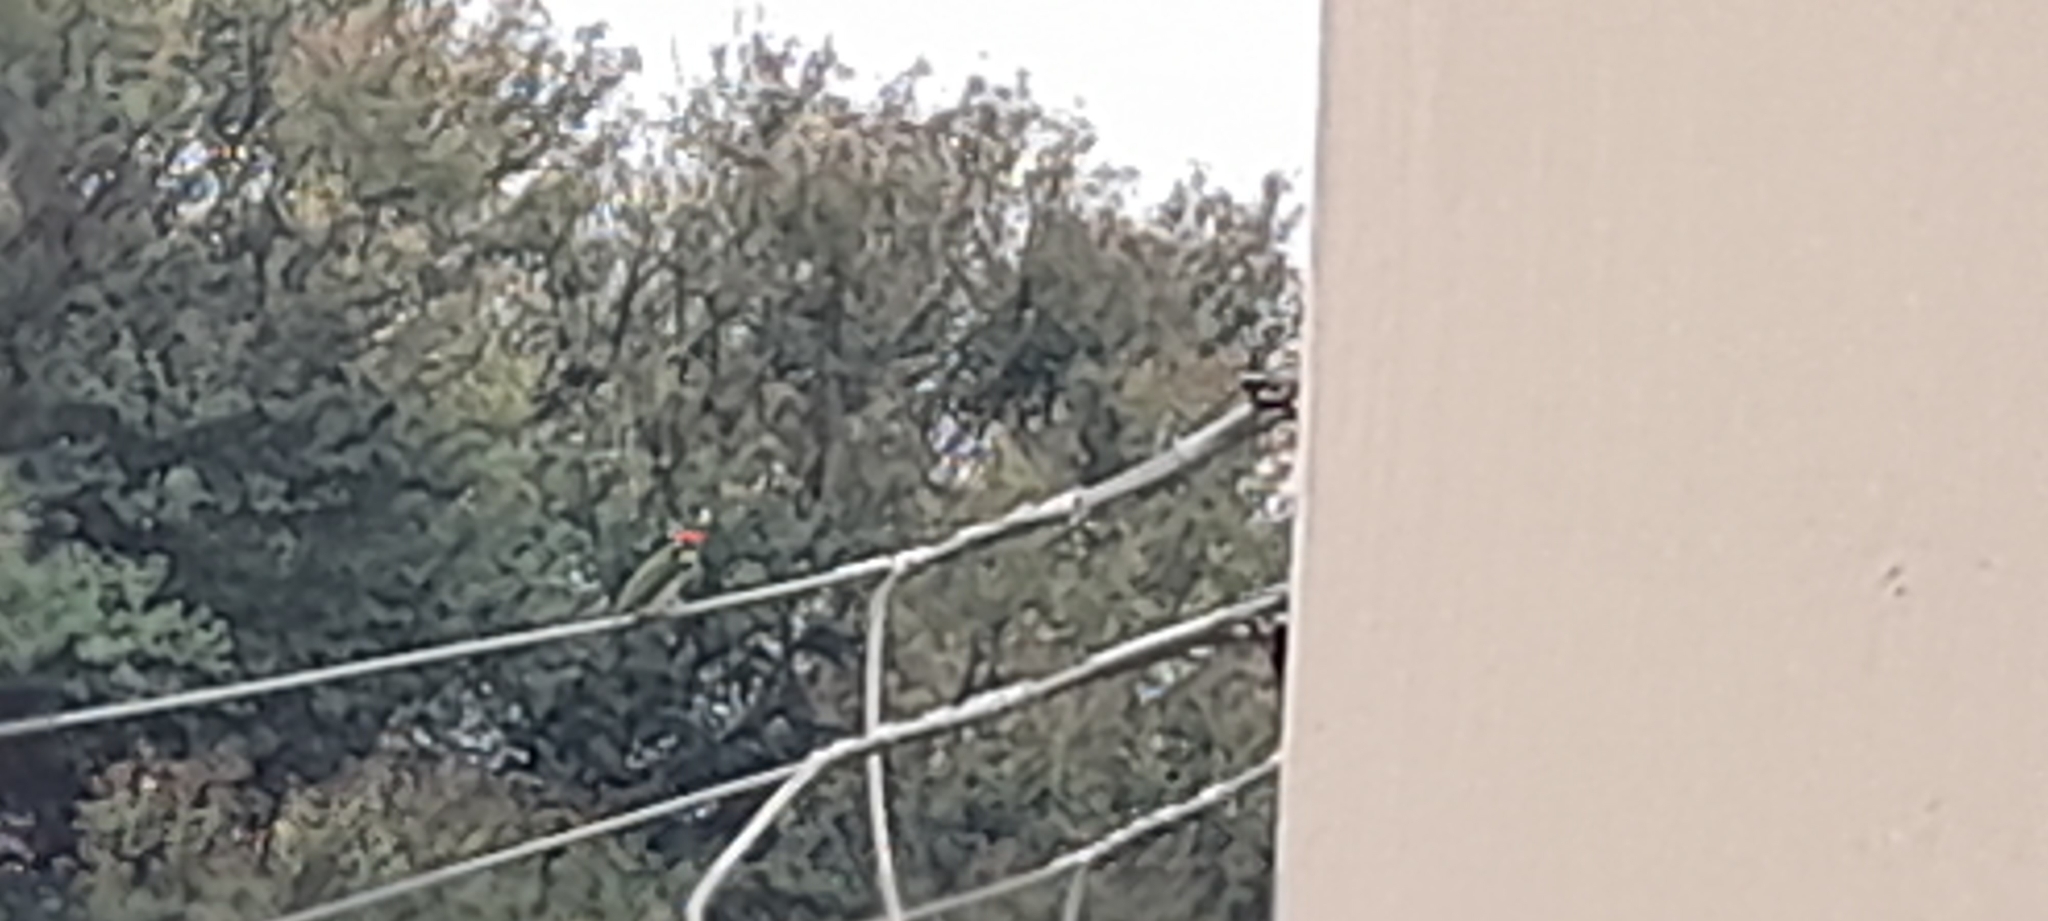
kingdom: Animalia
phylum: Chordata
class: Aves
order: Piciformes
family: Megalaimidae
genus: Psilopogon
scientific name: Psilopogon haemacephalus
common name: Coppersmith barbet
